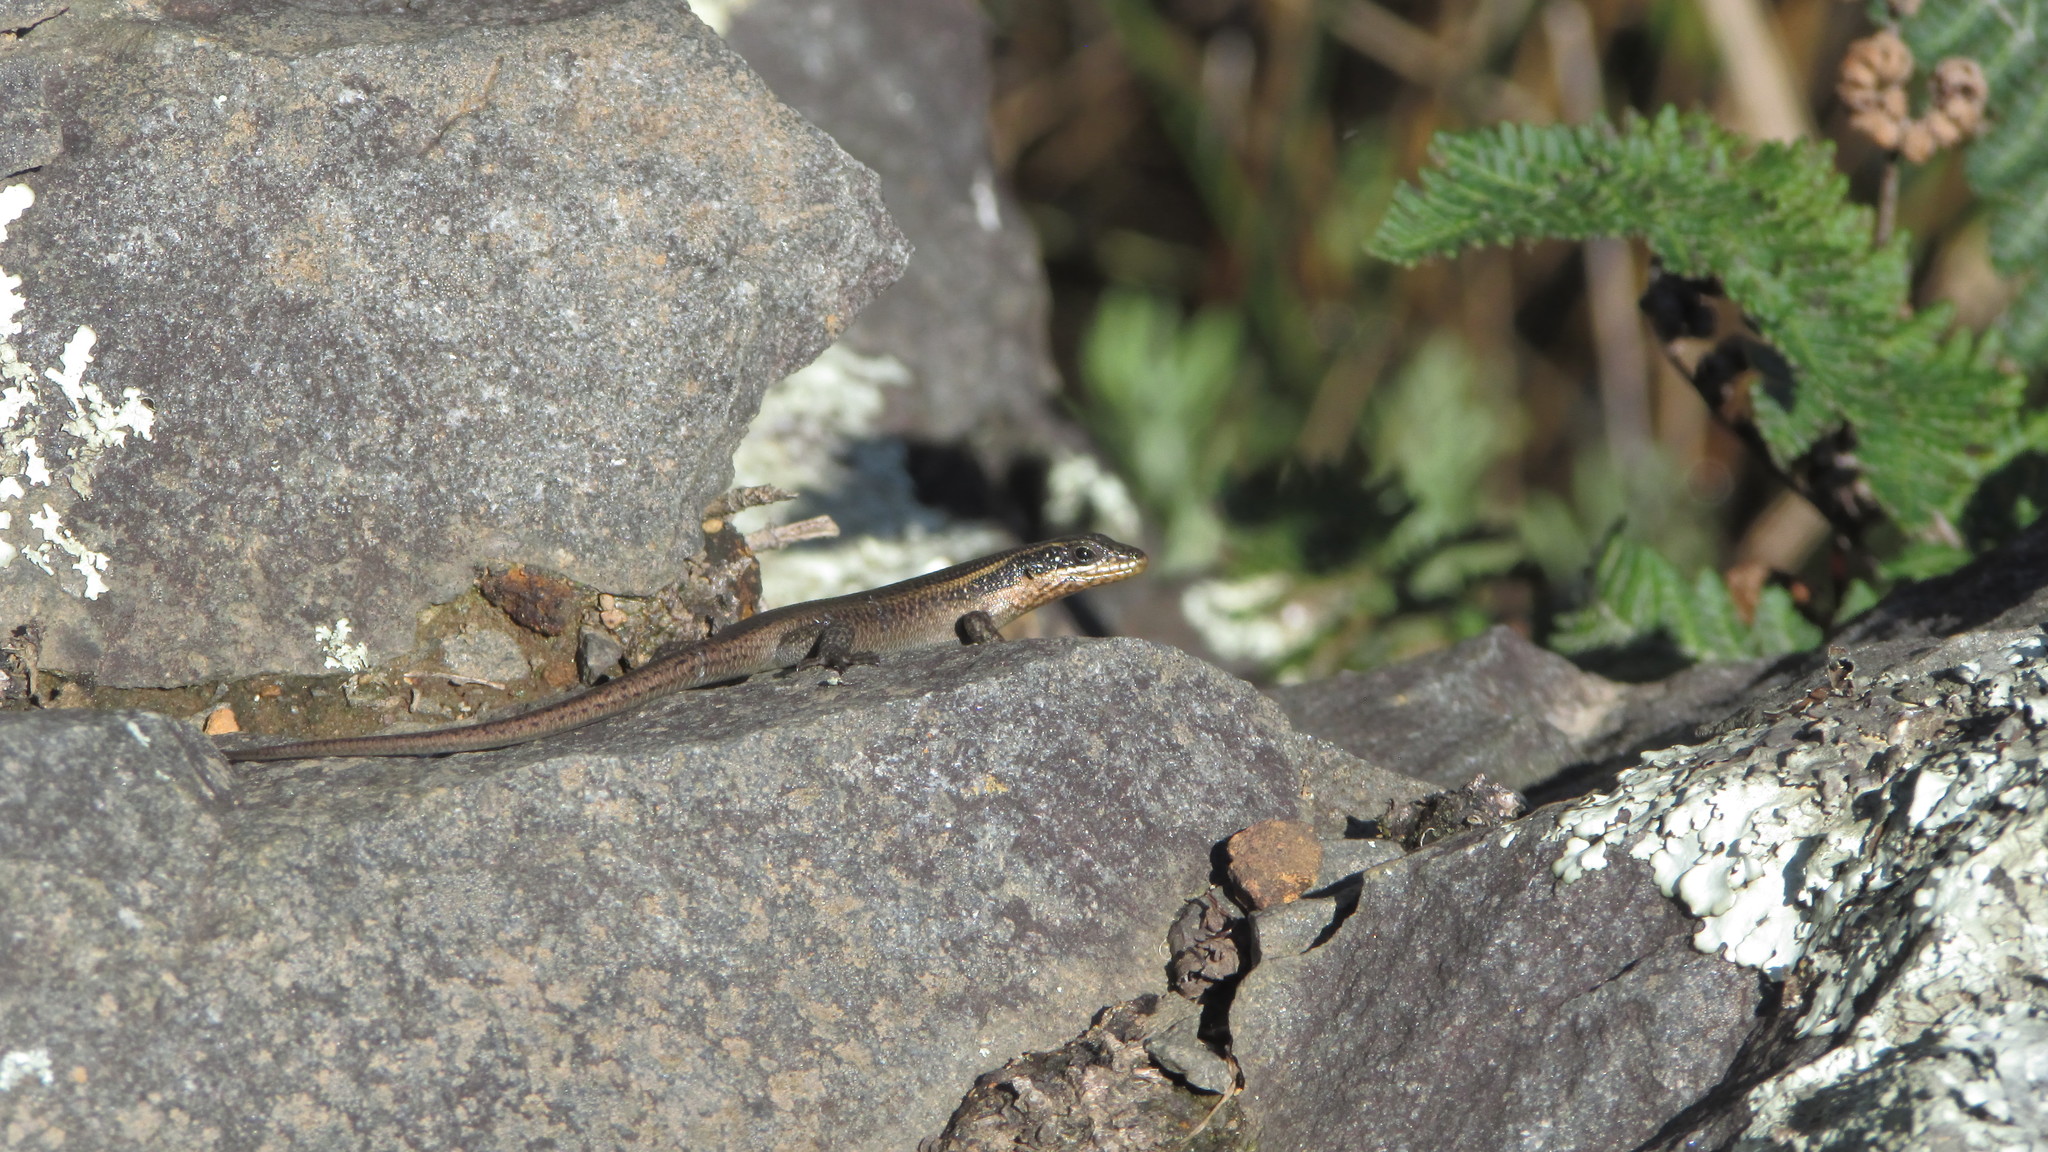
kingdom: Animalia
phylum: Chordata
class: Squamata
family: Scincidae
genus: Trachylepis
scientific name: Trachylepis punctatissima
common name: Montane speckled skink
